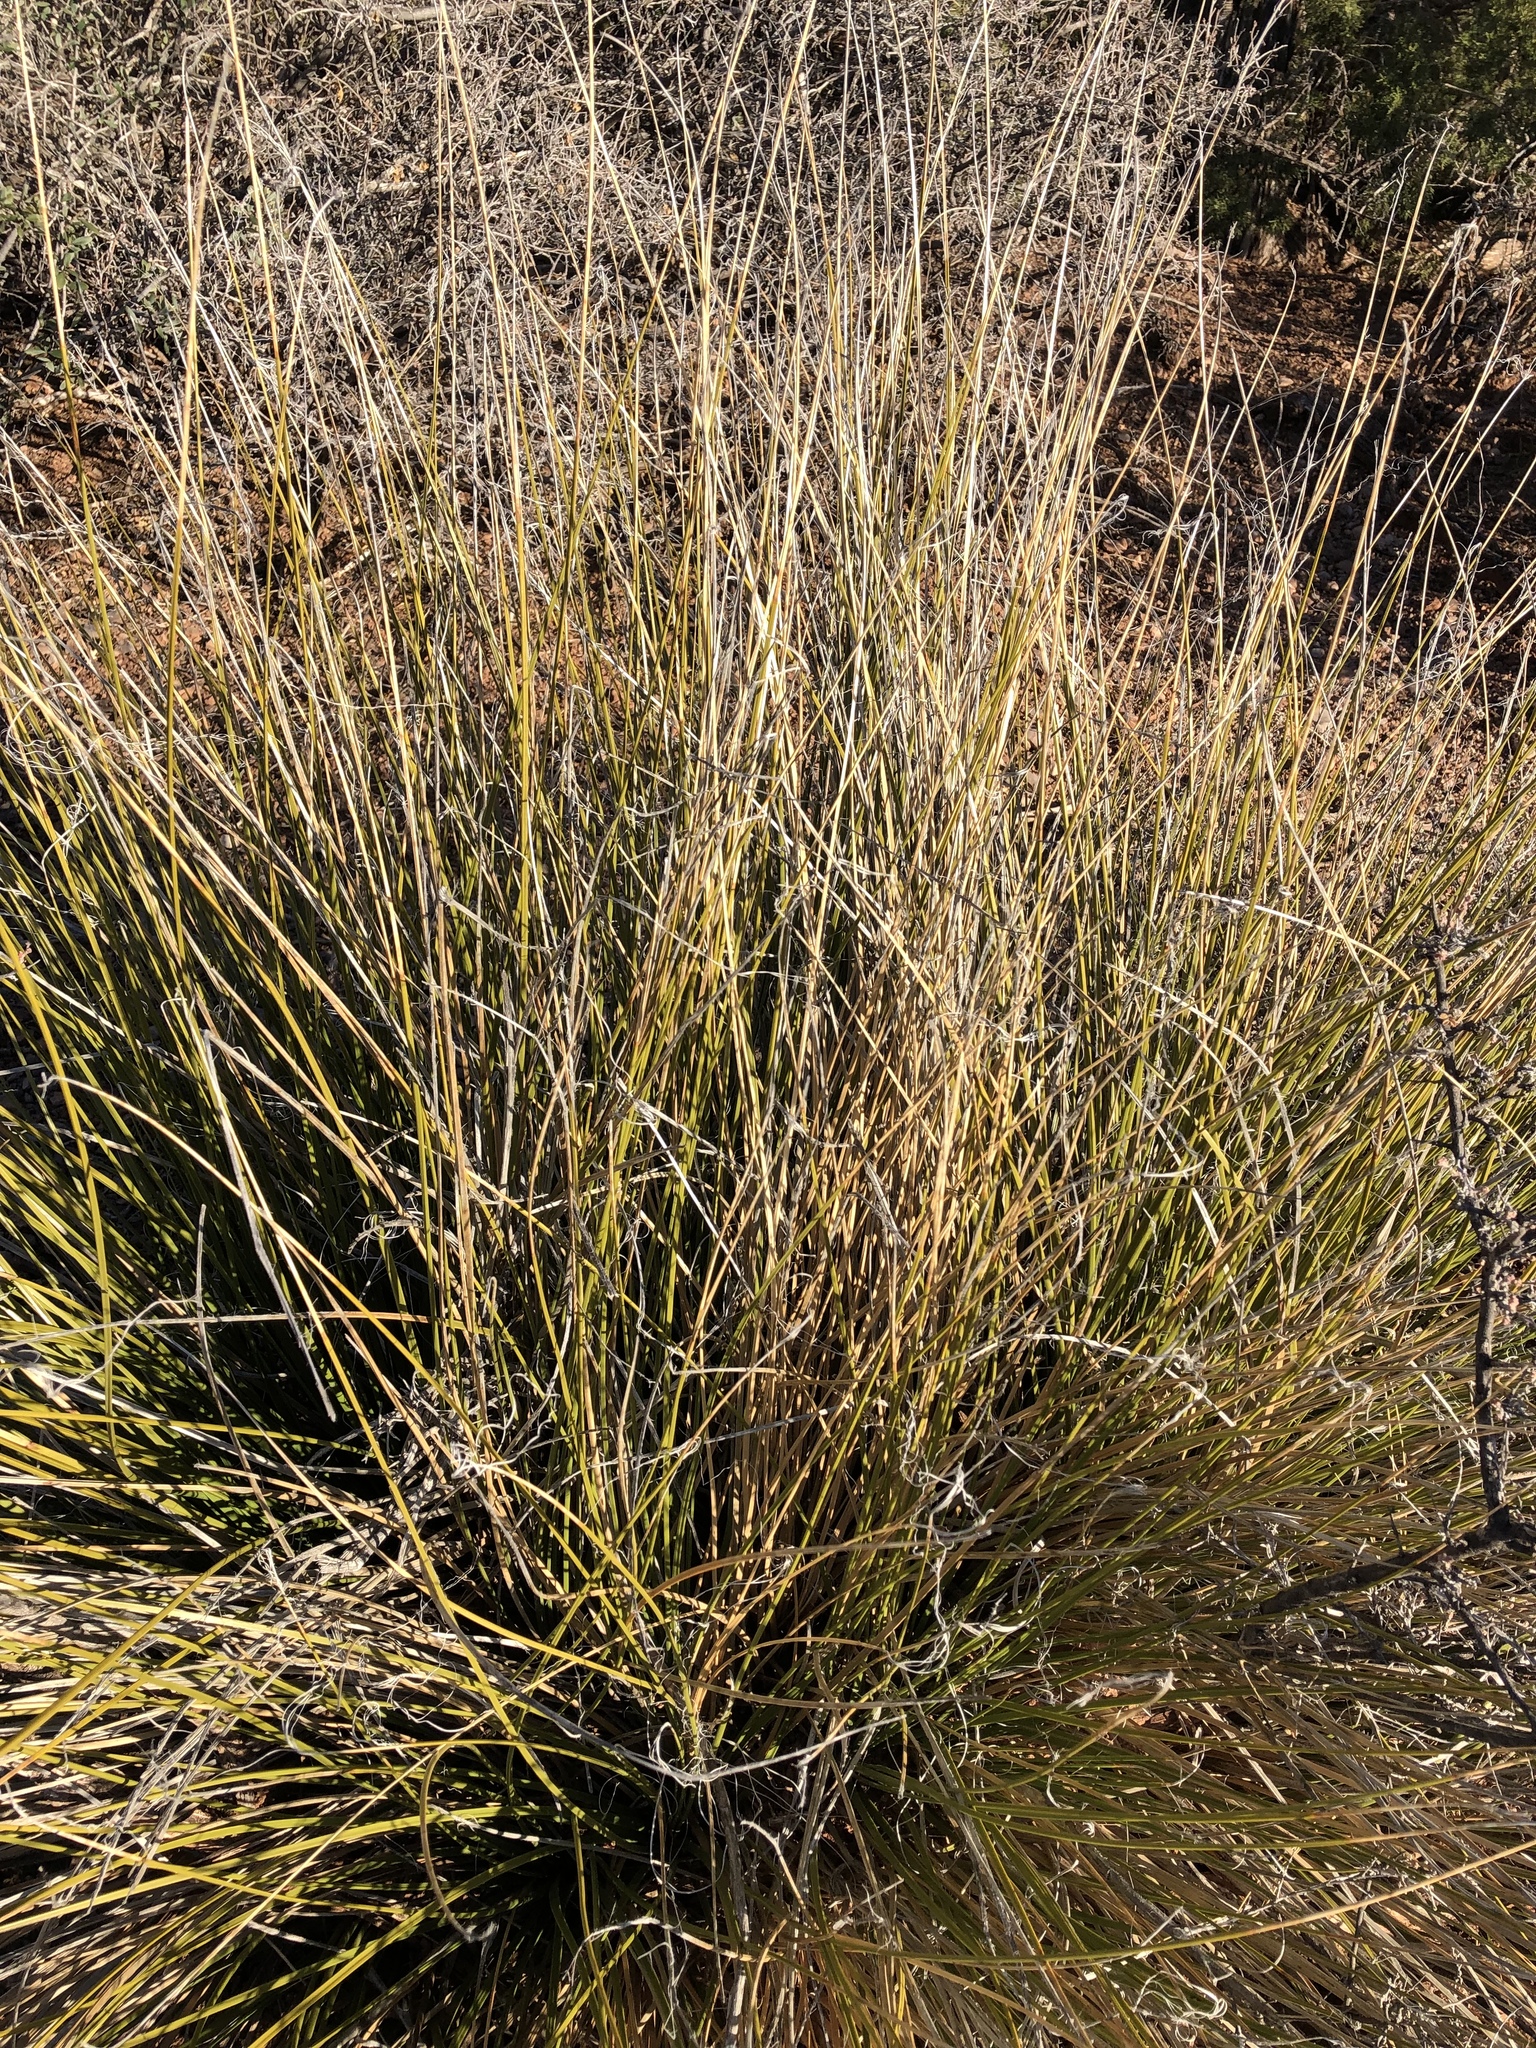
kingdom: Plantae
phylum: Tracheophyta
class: Liliopsida
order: Asparagales
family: Asparagaceae
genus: Nolina
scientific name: Nolina texana
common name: Texas sacahuiste
